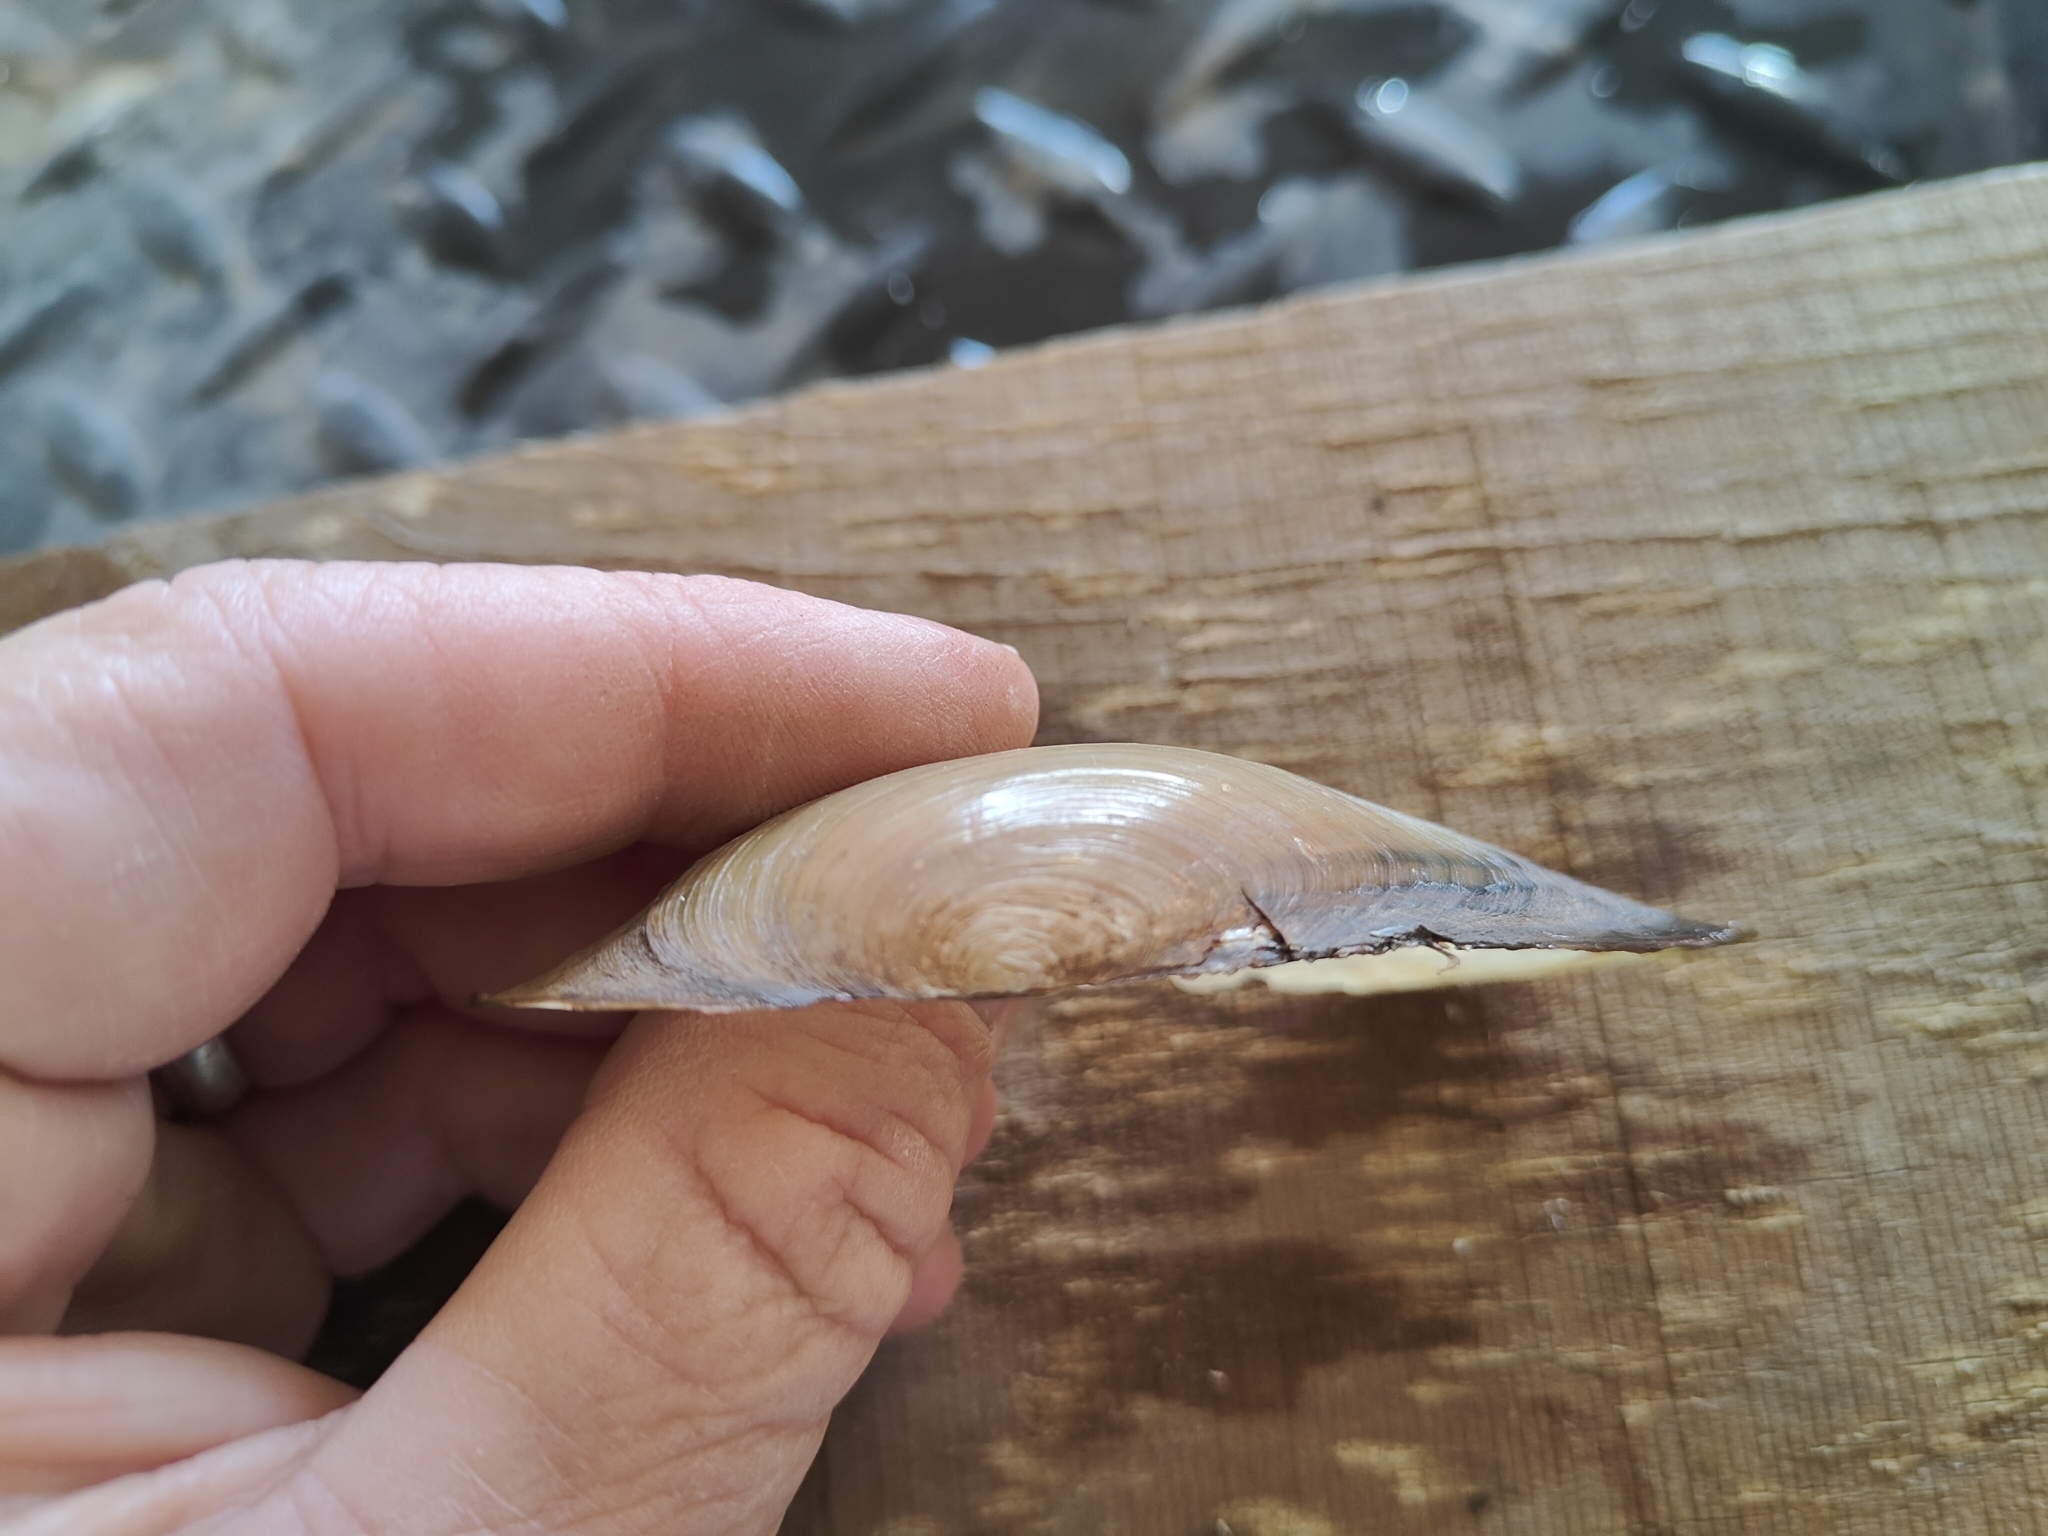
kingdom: Animalia
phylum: Mollusca
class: Bivalvia
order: Unionida
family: Unionidae
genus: Utterbackia
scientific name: Utterbackia imbecillis
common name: Paper pondshell
